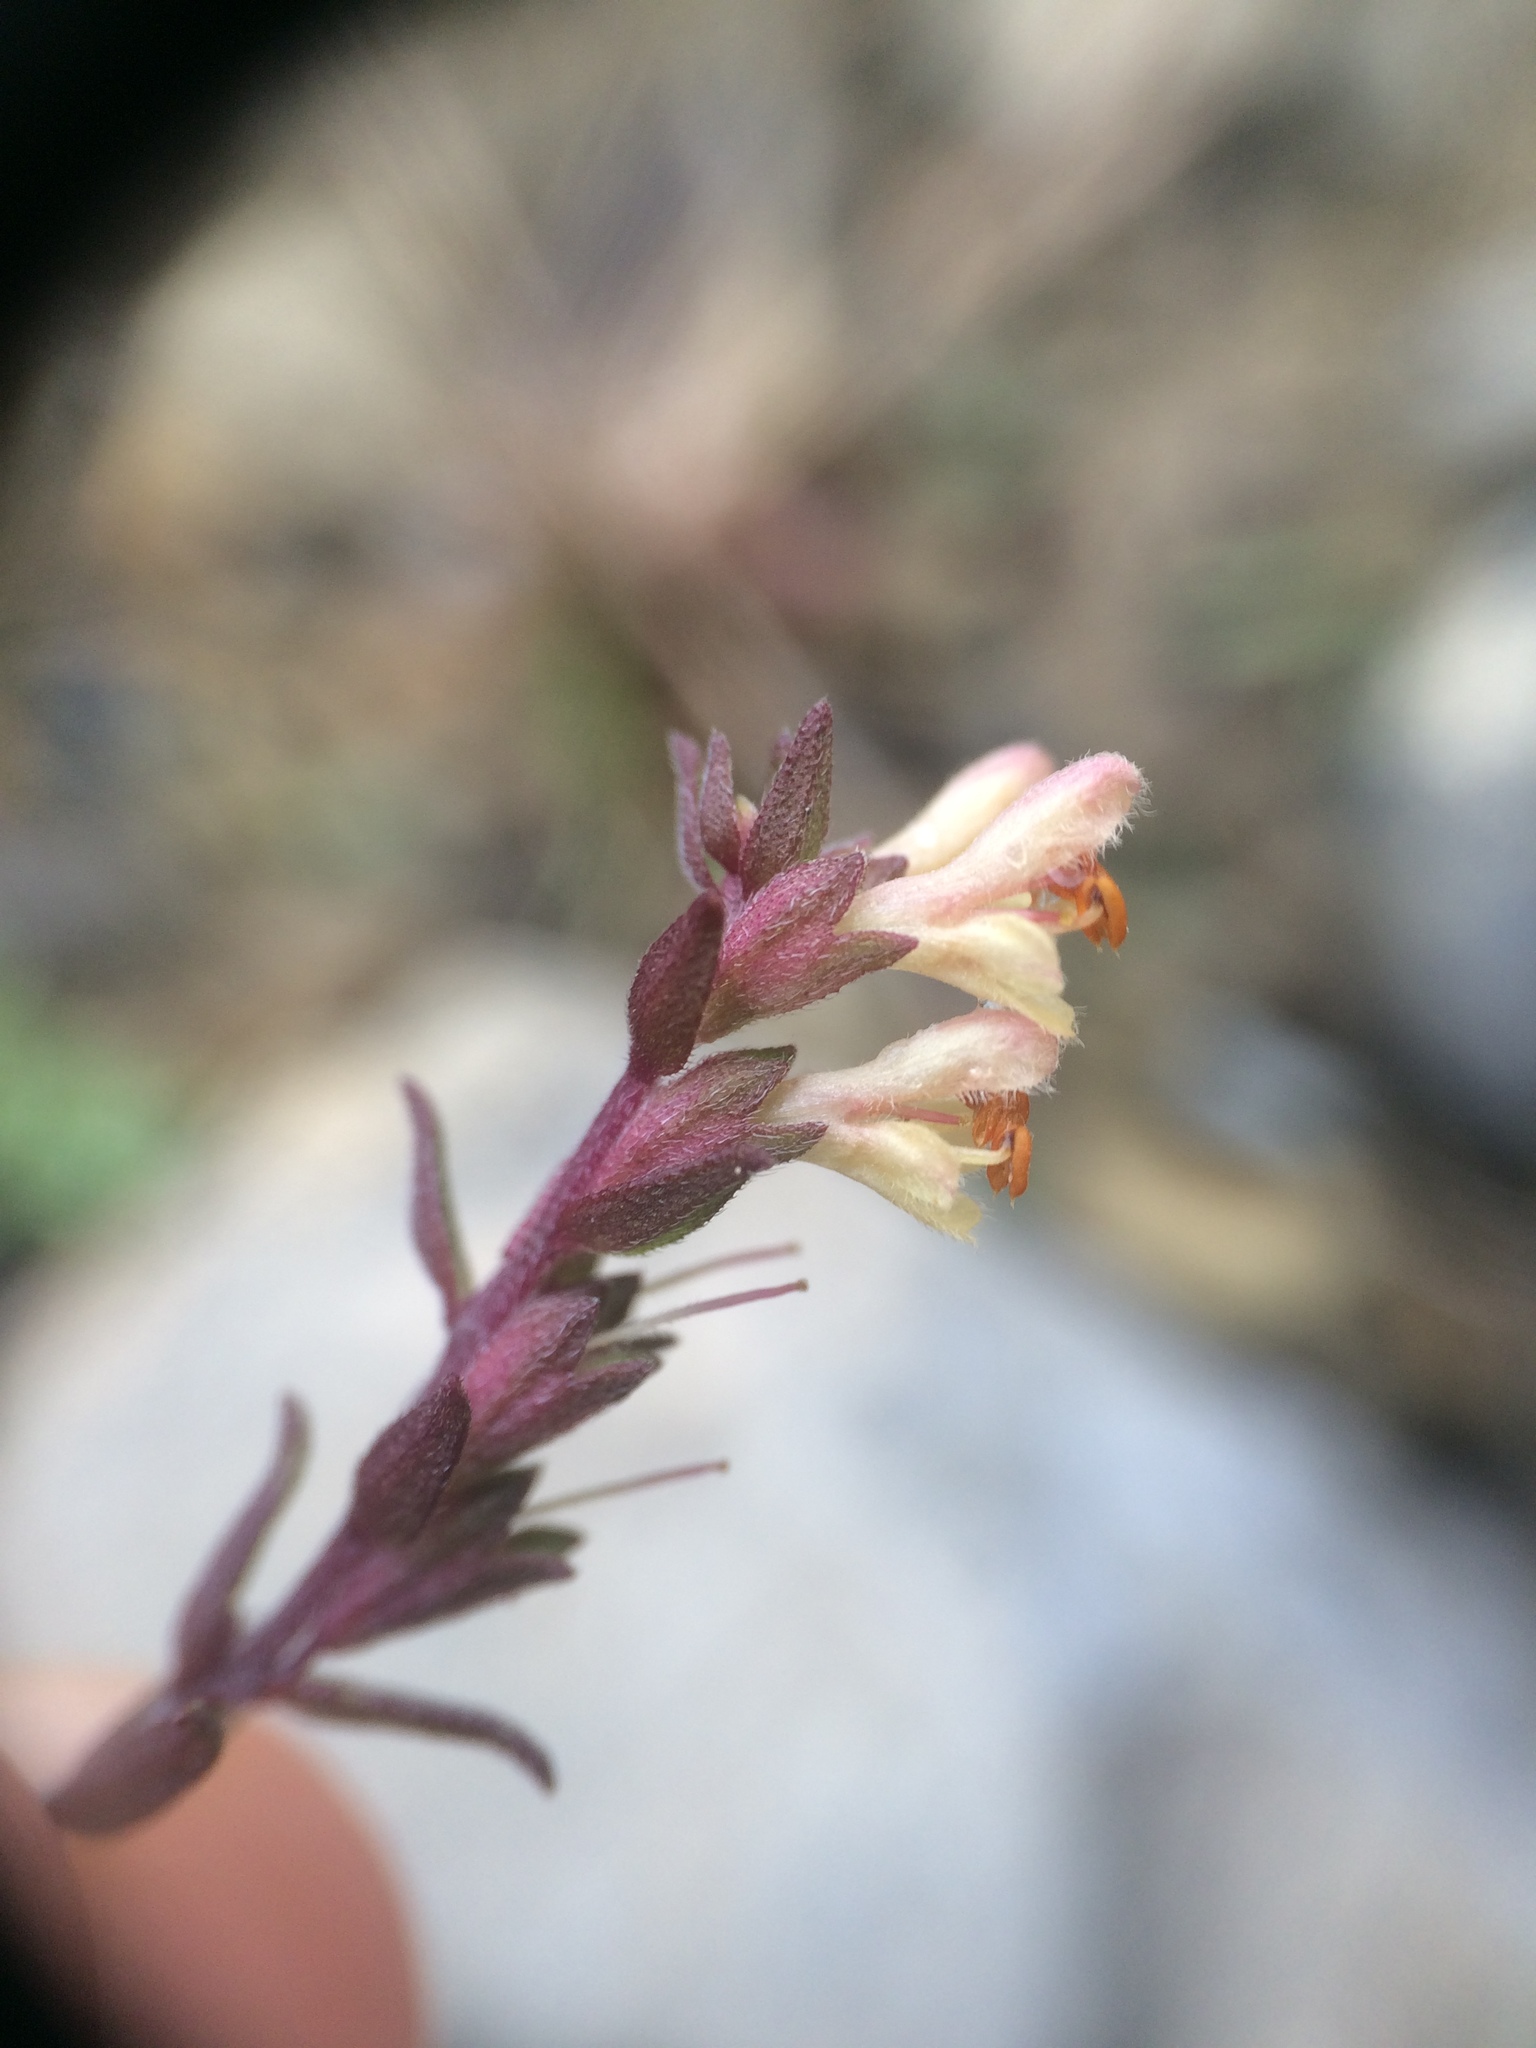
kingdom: Plantae
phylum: Tracheophyta
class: Magnoliopsida
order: Lamiales
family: Orobanchaceae
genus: Odontites
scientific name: Odontites vulgaris
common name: Broomrape
